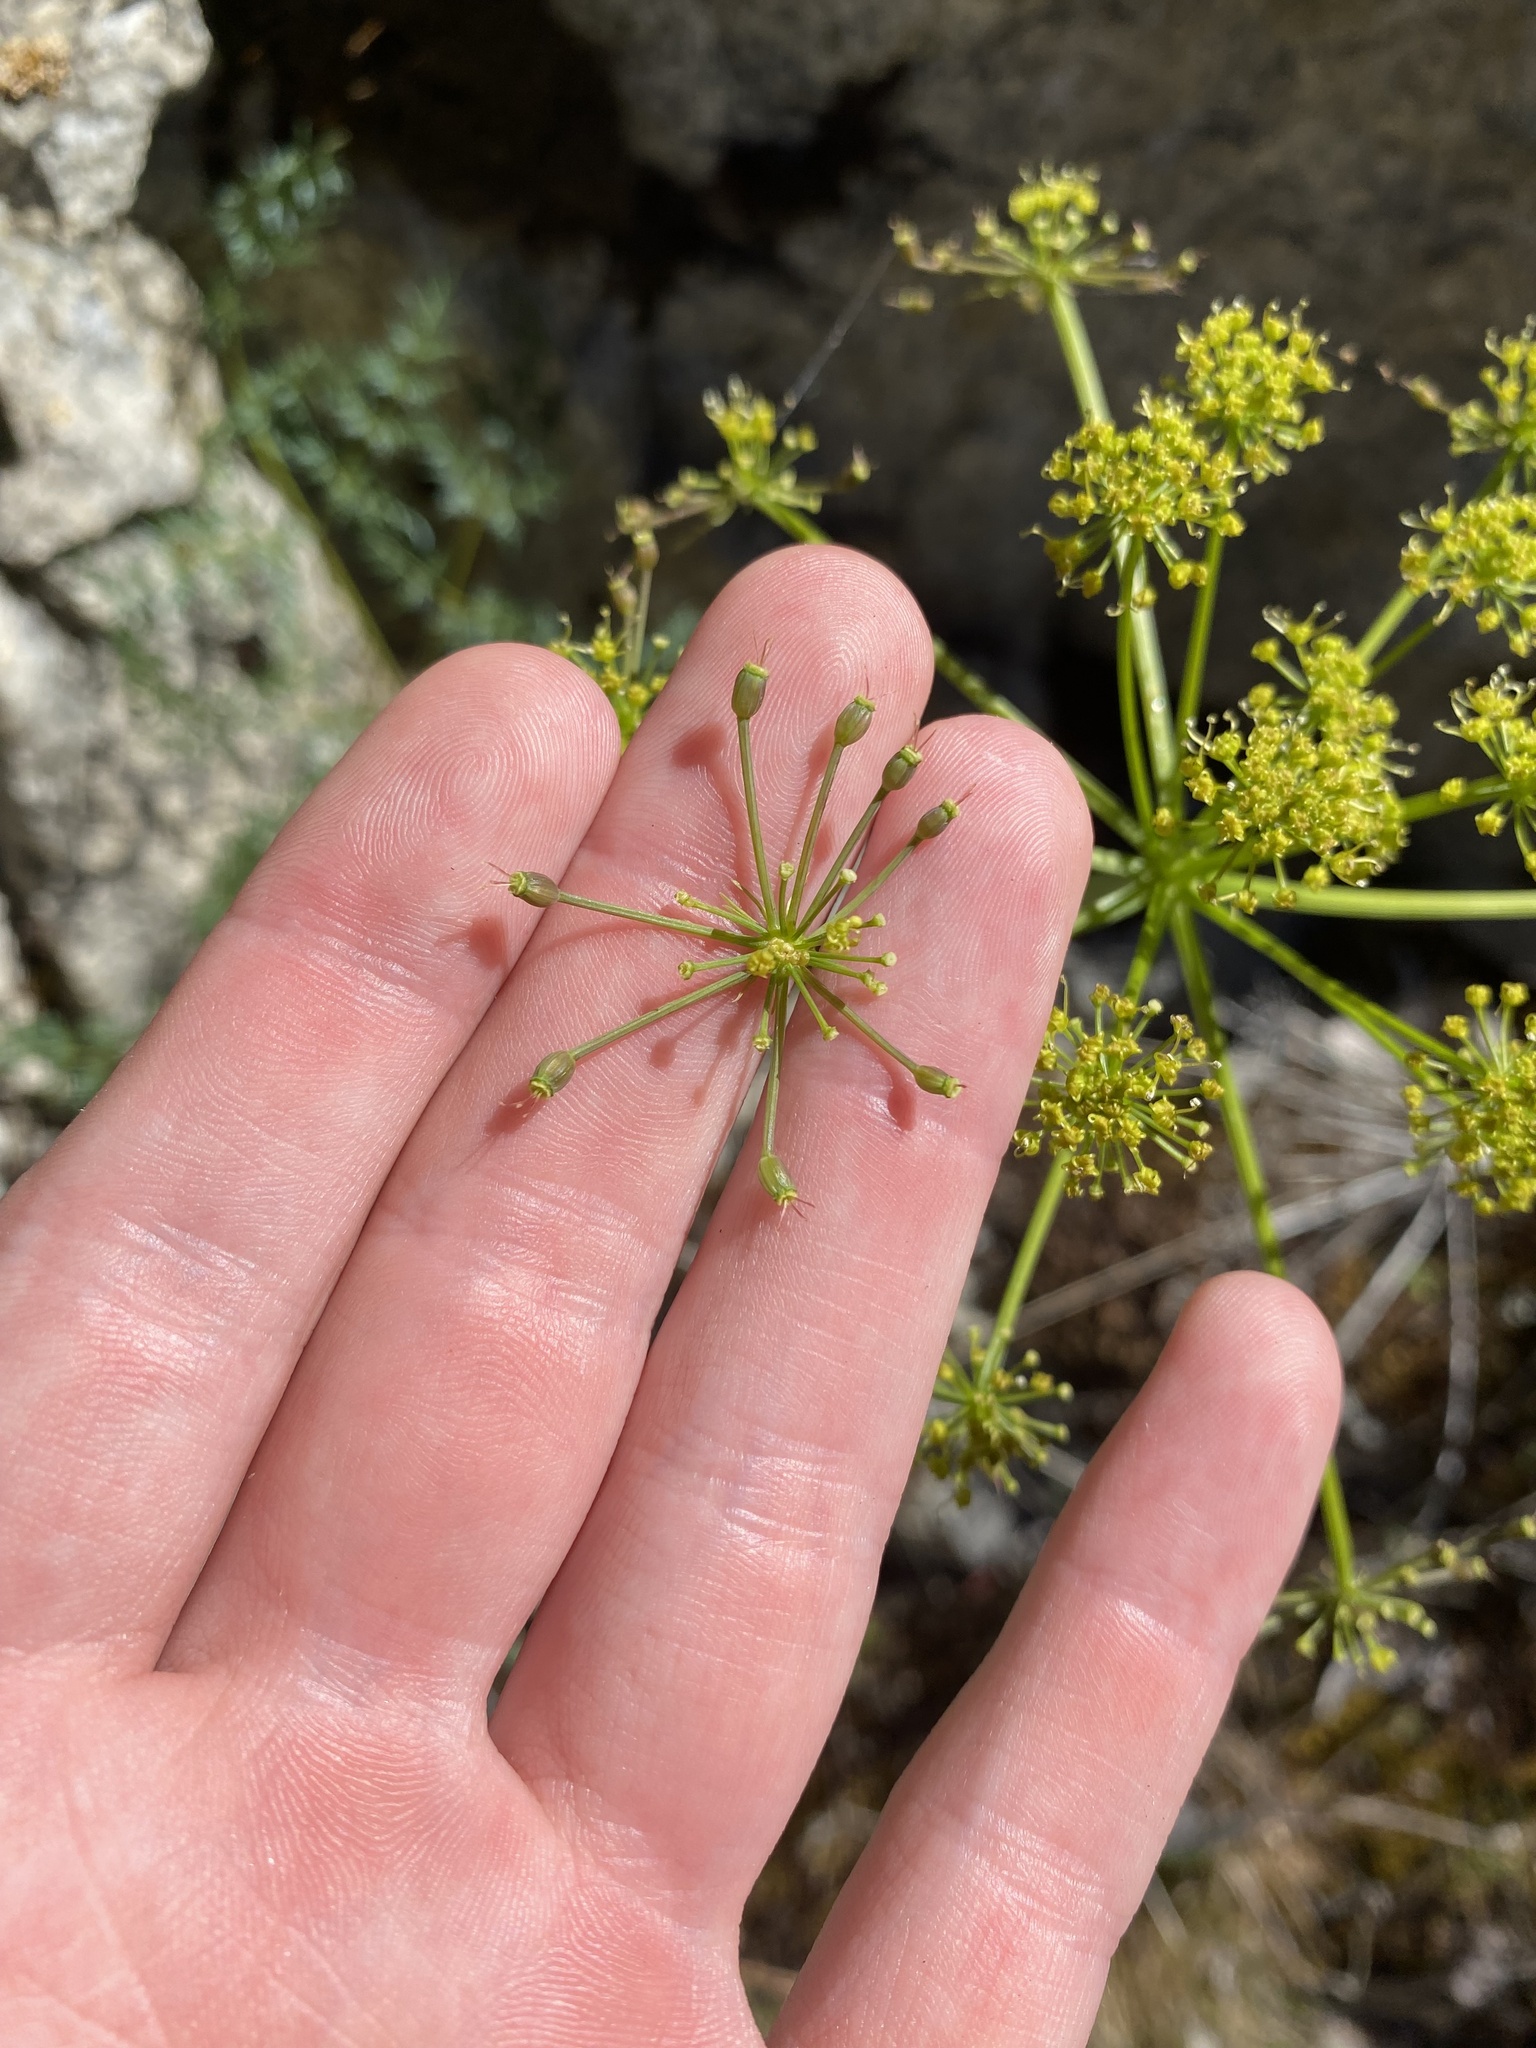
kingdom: Plantae
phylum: Tracheophyta
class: Magnoliopsida
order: Apiales
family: Apiaceae
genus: Lomatium
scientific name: Lomatium multifidum
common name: Carrot-leaved biscuitroot
